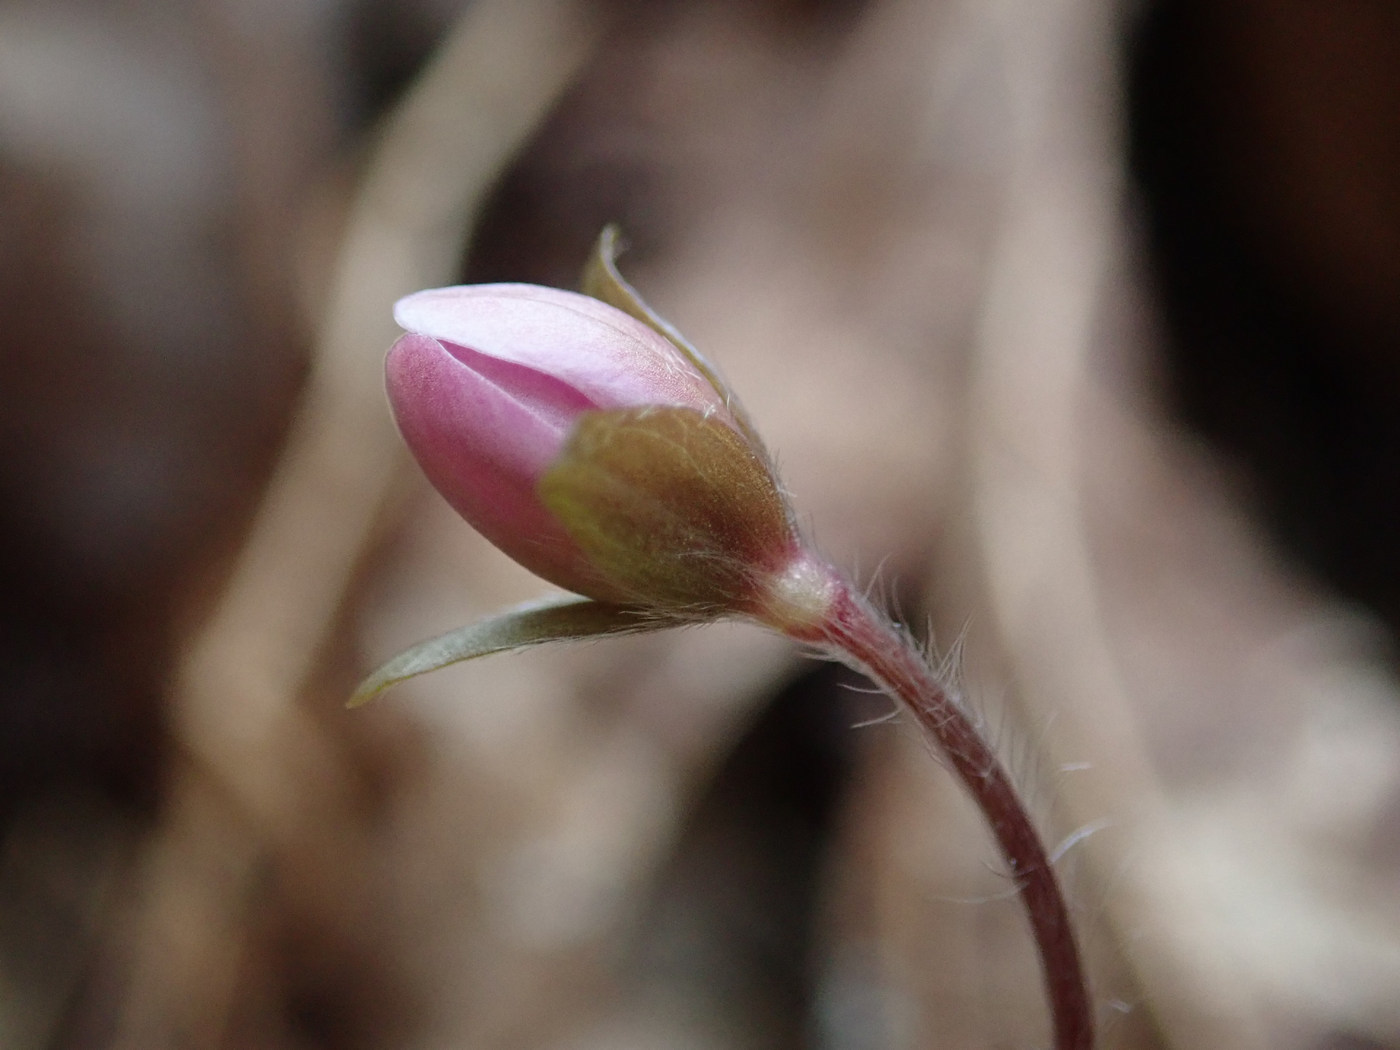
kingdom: Plantae
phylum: Tracheophyta
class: Magnoliopsida
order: Ranunculales
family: Ranunculaceae
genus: Hepatica
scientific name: Hepatica americana
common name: American hepatica
